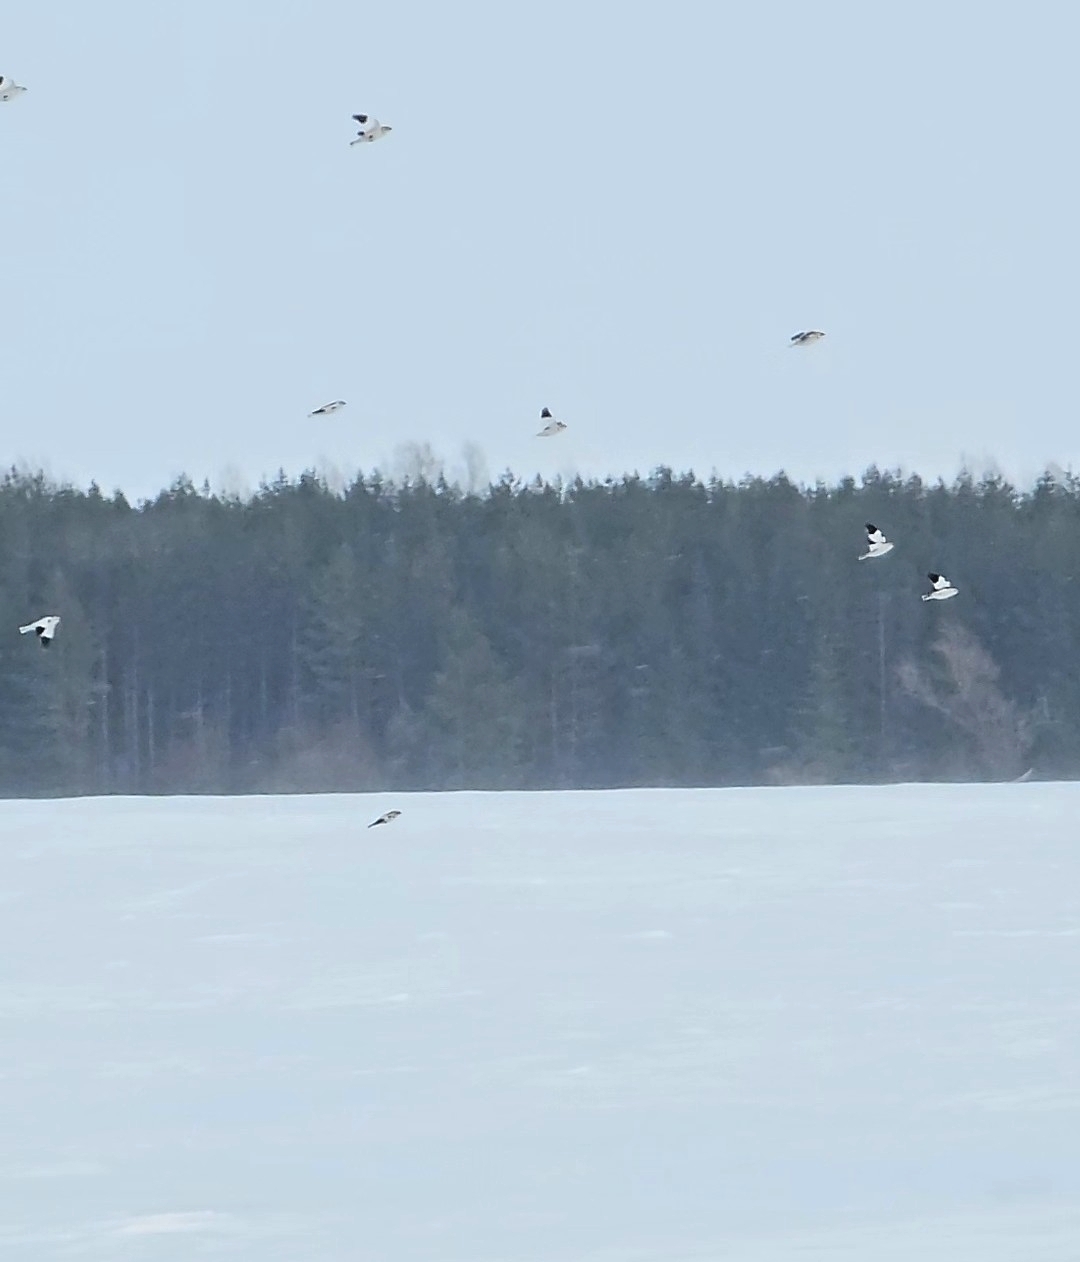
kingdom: Animalia
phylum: Chordata
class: Aves
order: Passeriformes
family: Calcariidae
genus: Plectrophenax
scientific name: Plectrophenax nivalis
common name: Snow bunting
